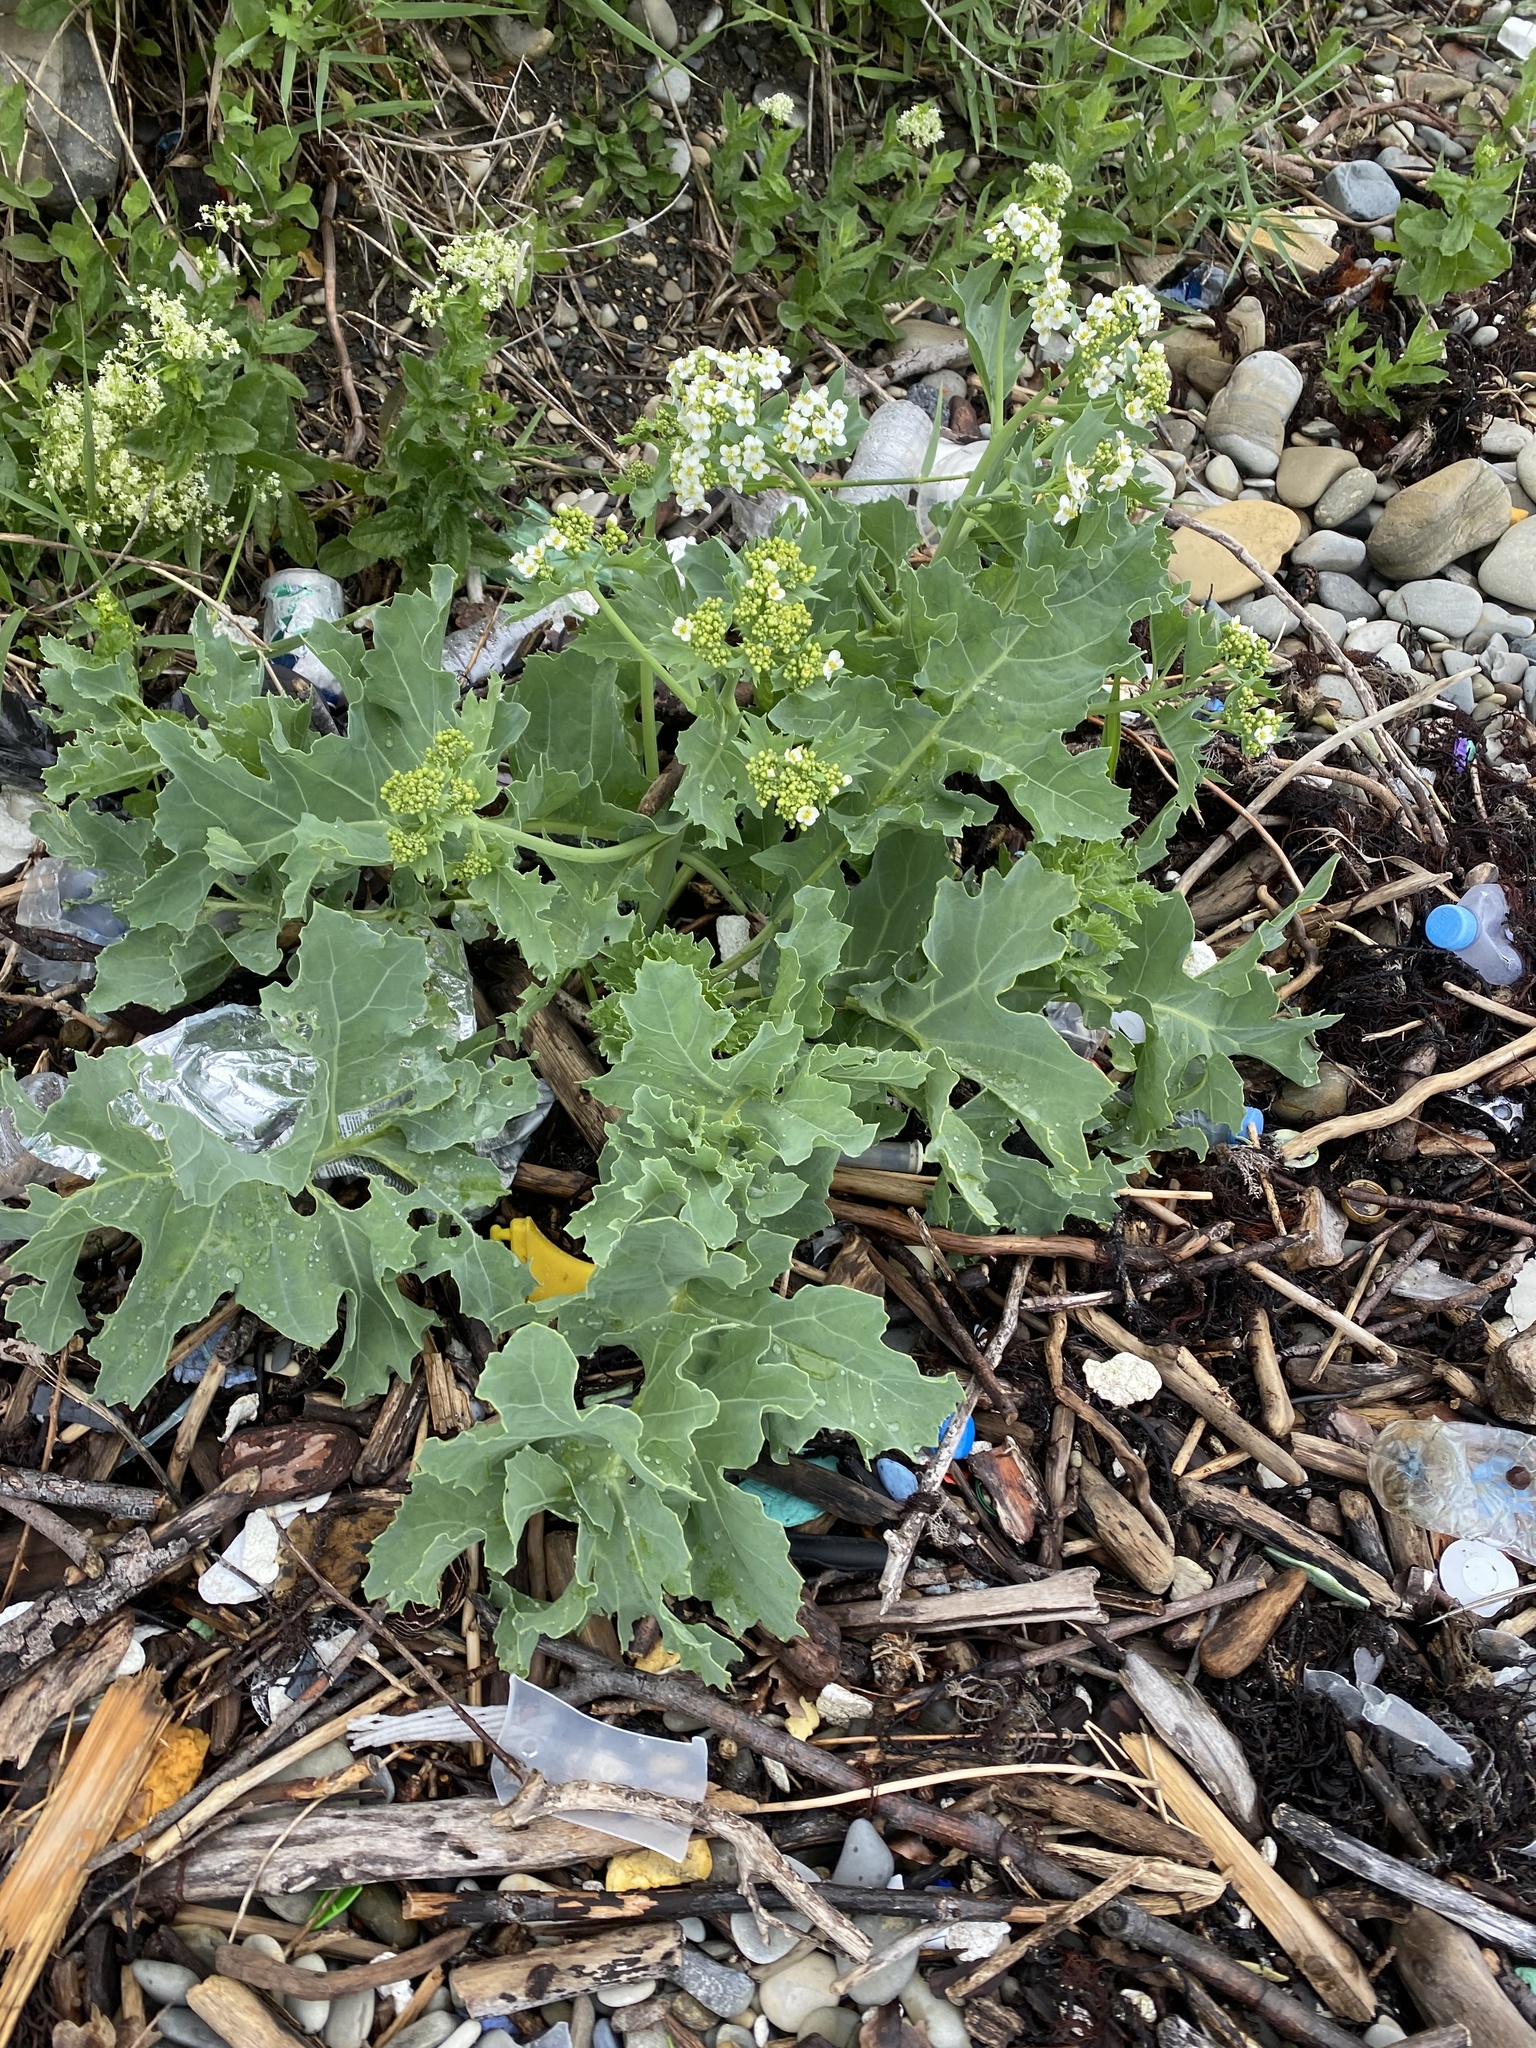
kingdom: Plantae
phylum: Tracheophyta
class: Magnoliopsida
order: Brassicales
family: Brassicaceae
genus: Crambe
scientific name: Crambe maritima
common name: Sea-kale
